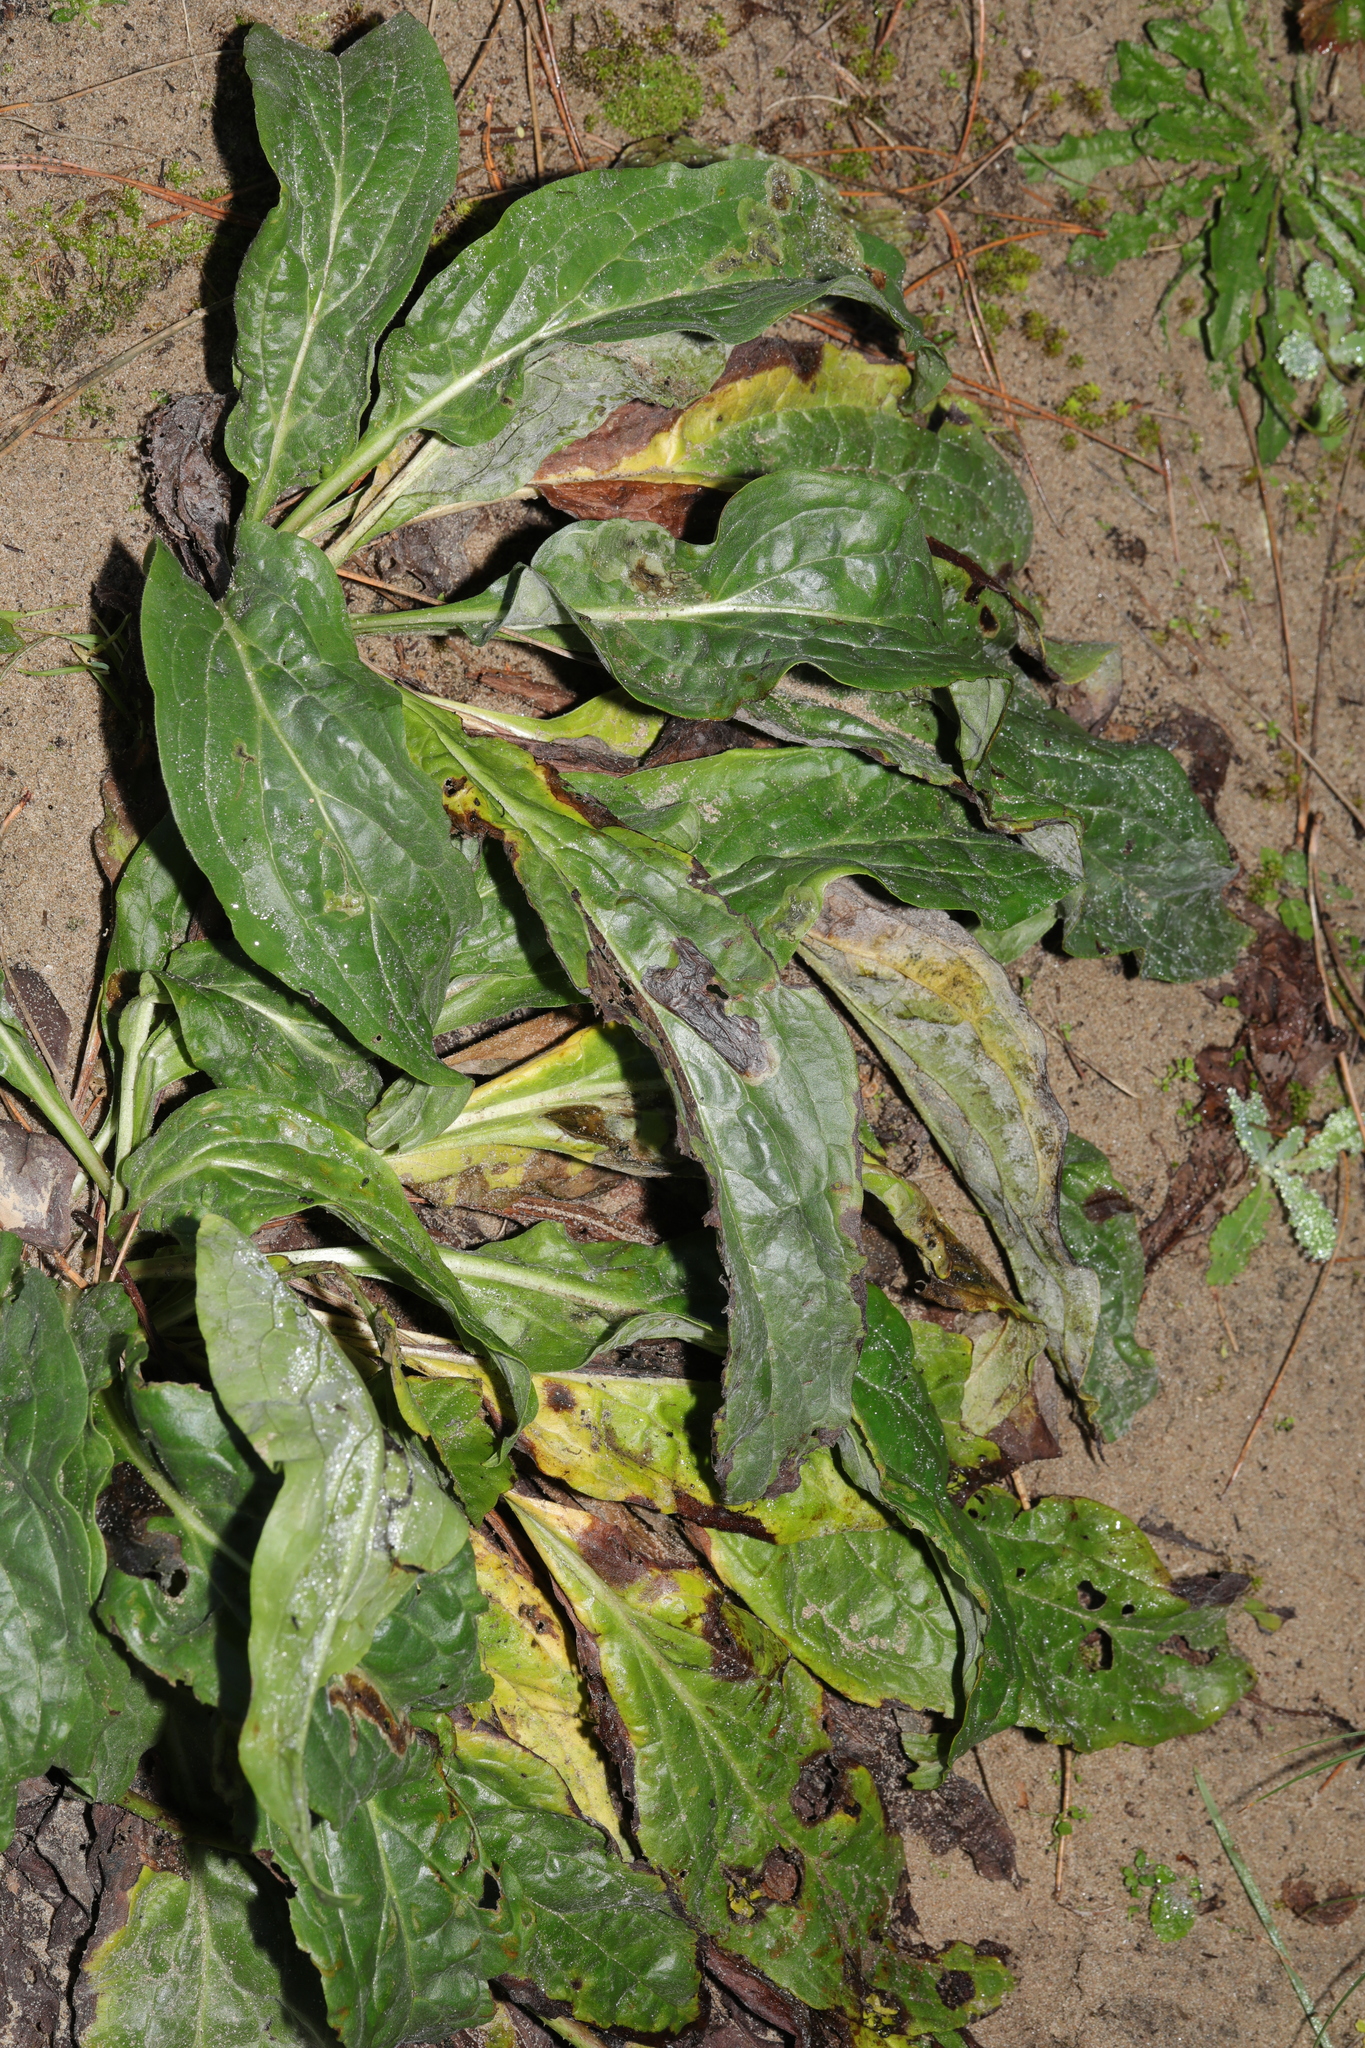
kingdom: Plantae
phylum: Tracheophyta
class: Magnoliopsida
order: Boraginales
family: Boraginaceae
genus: Cynoglossum
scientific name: Cynoglossum officinale
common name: Hound's-tongue
